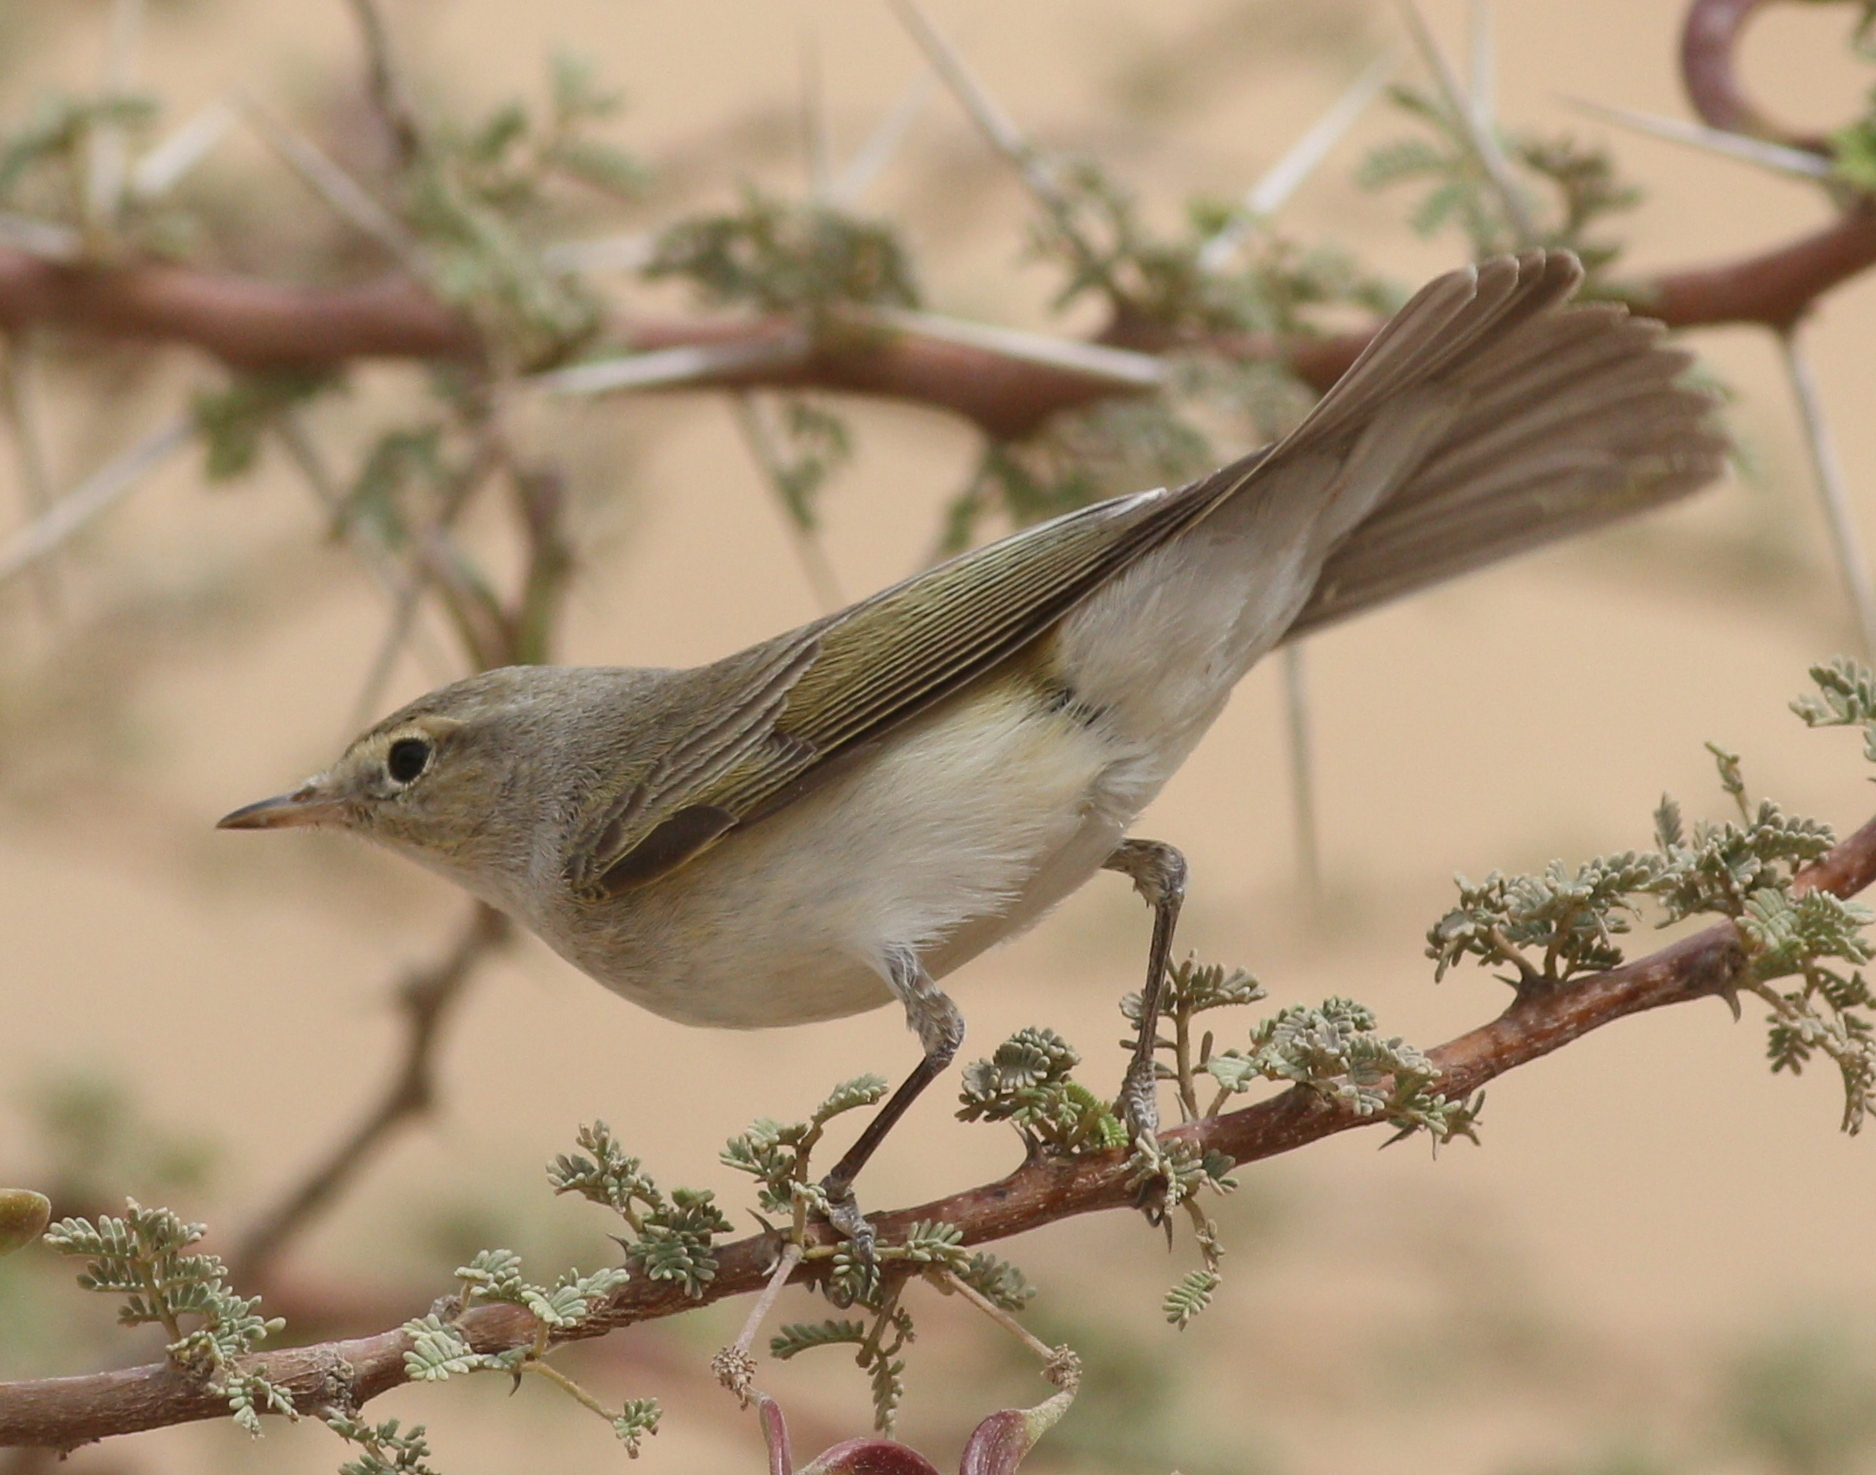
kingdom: Animalia
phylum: Chordata
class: Aves
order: Passeriformes
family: Phylloscopidae
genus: Phylloscopus
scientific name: Phylloscopus orientalis
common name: Eastern bonelli's warbler
